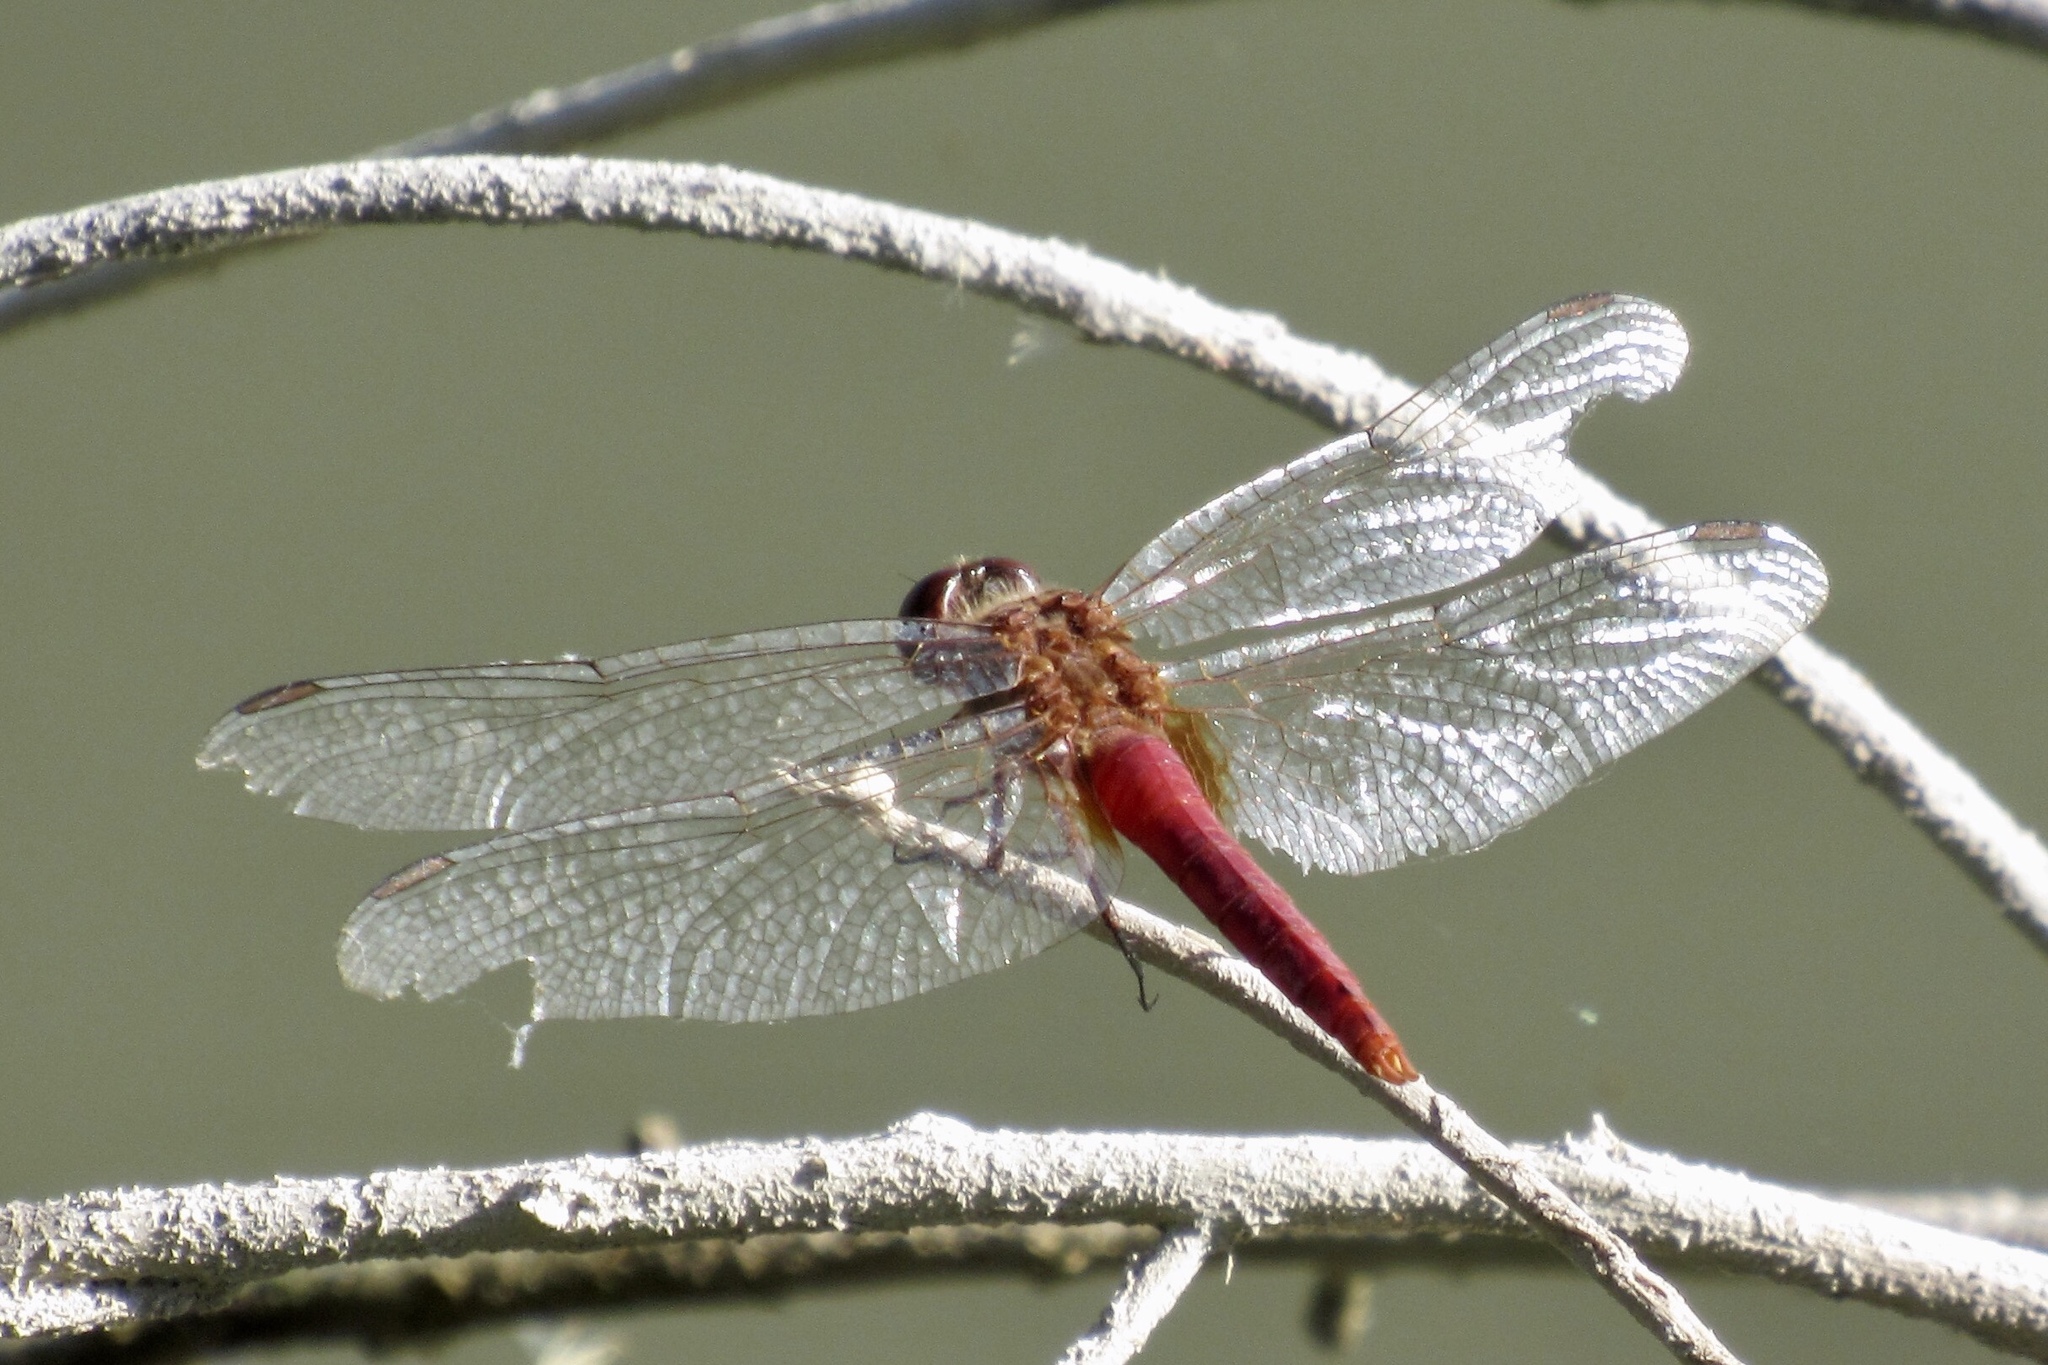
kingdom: Animalia
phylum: Arthropoda
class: Insecta
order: Odonata
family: Libellulidae
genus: Brachymesia
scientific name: Brachymesia furcata
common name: Red-taled pennant
